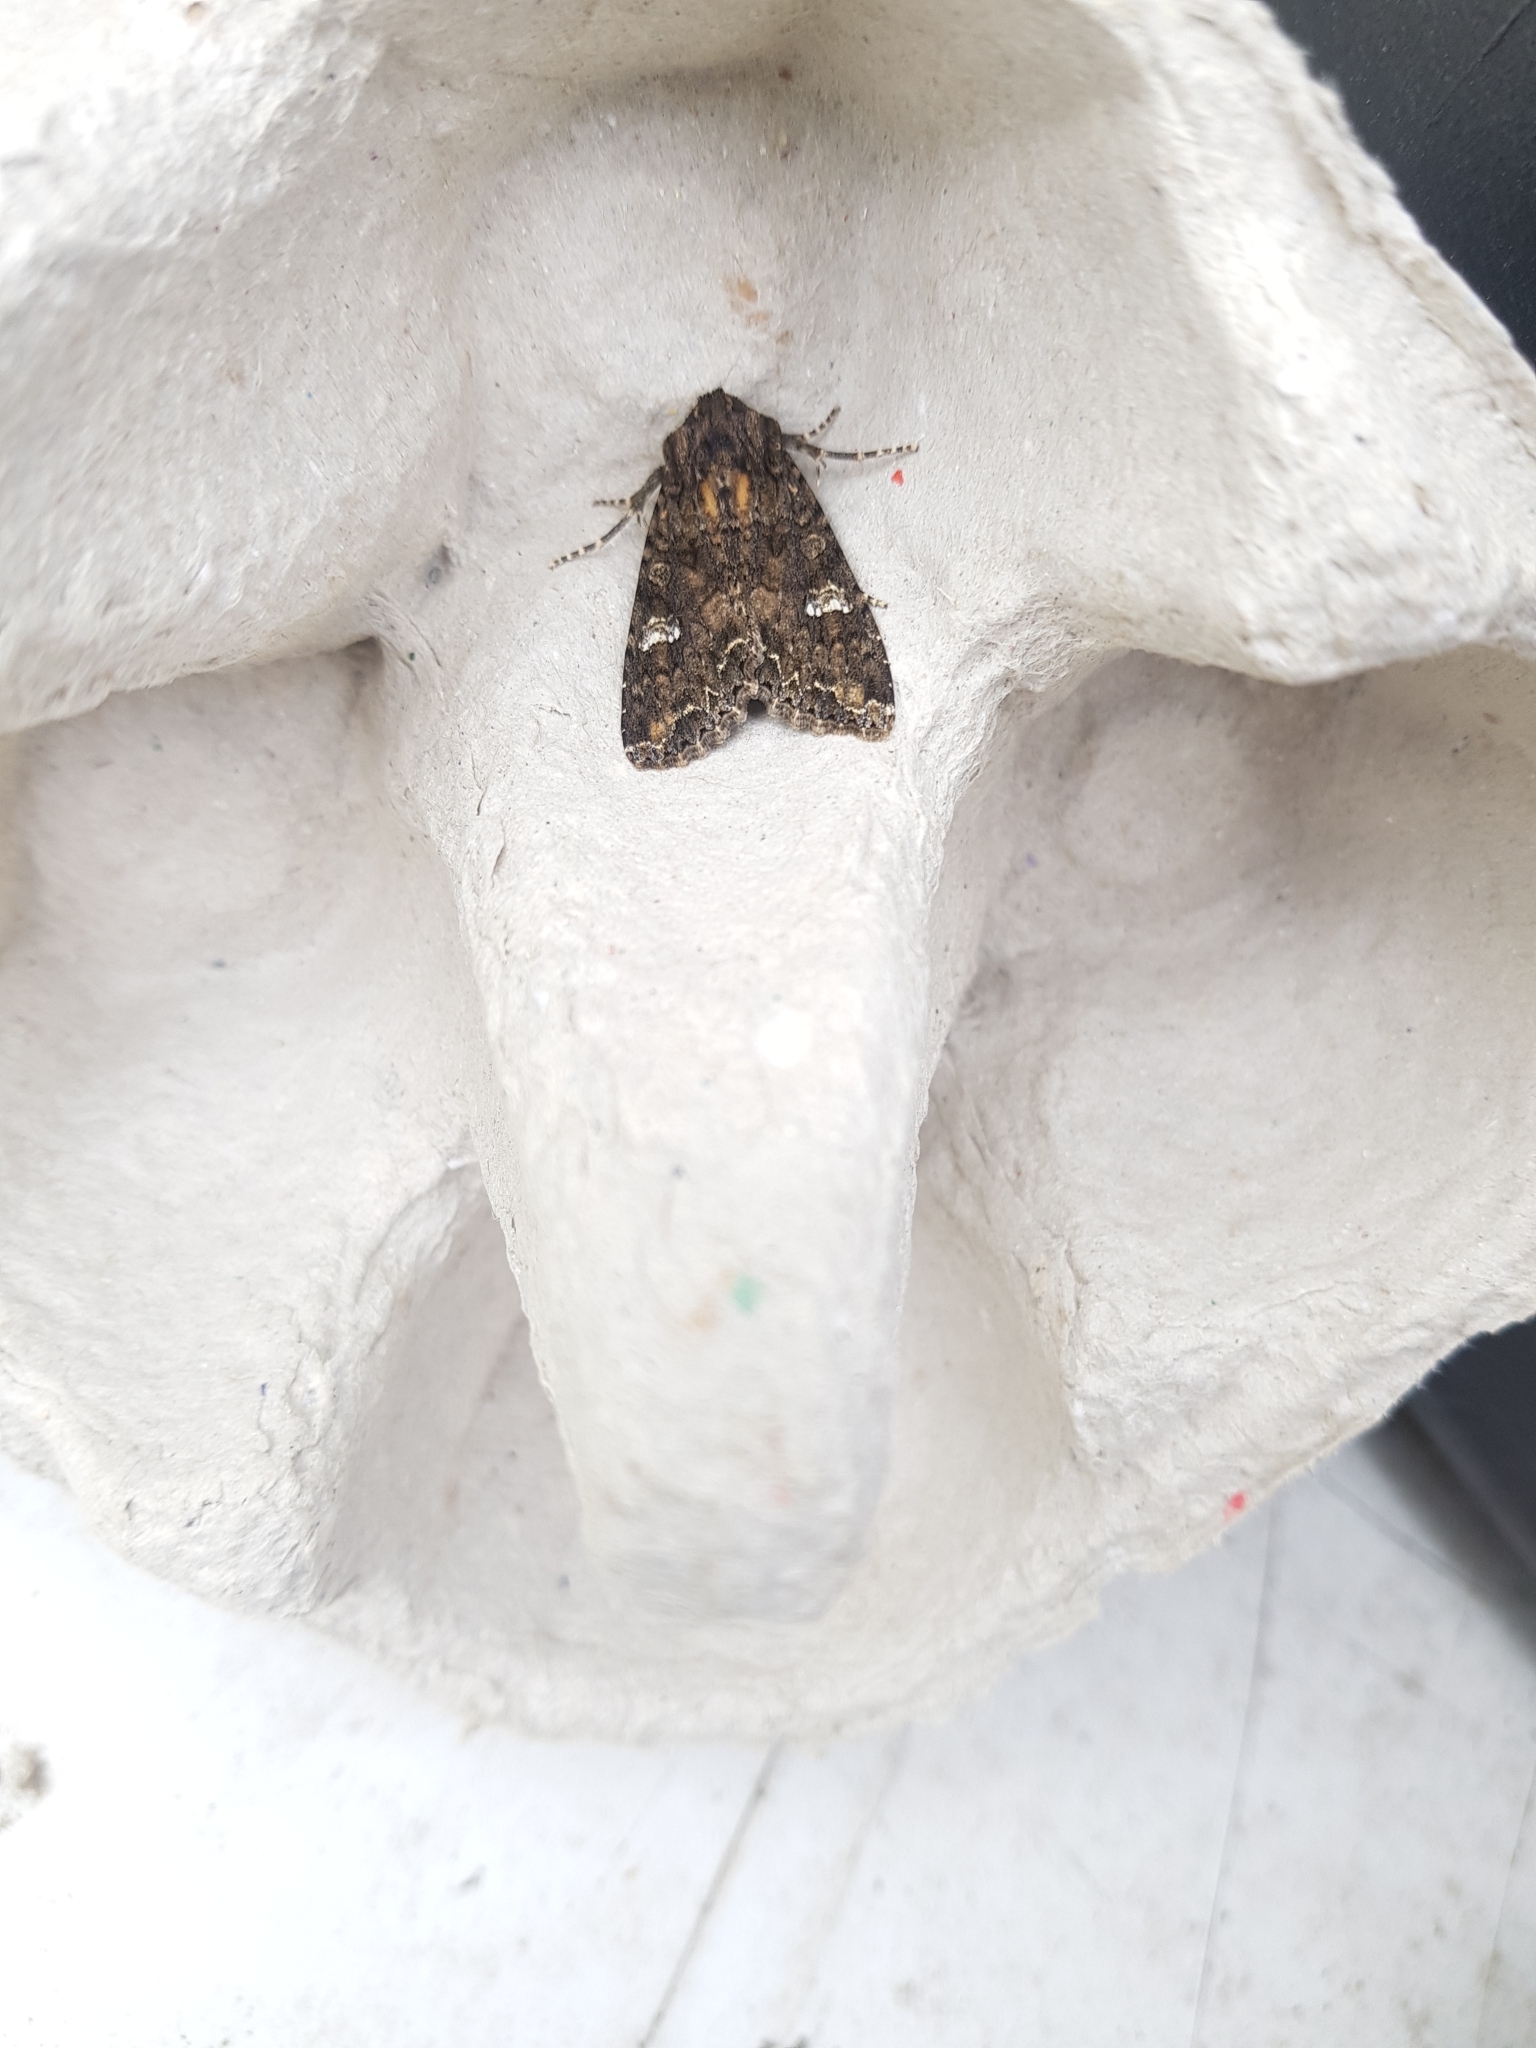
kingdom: Animalia
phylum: Arthropoda
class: Insecta
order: Lepidoptera
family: Noctuidae
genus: Melanchra
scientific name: Melanchra persicariae
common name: Dot moth
